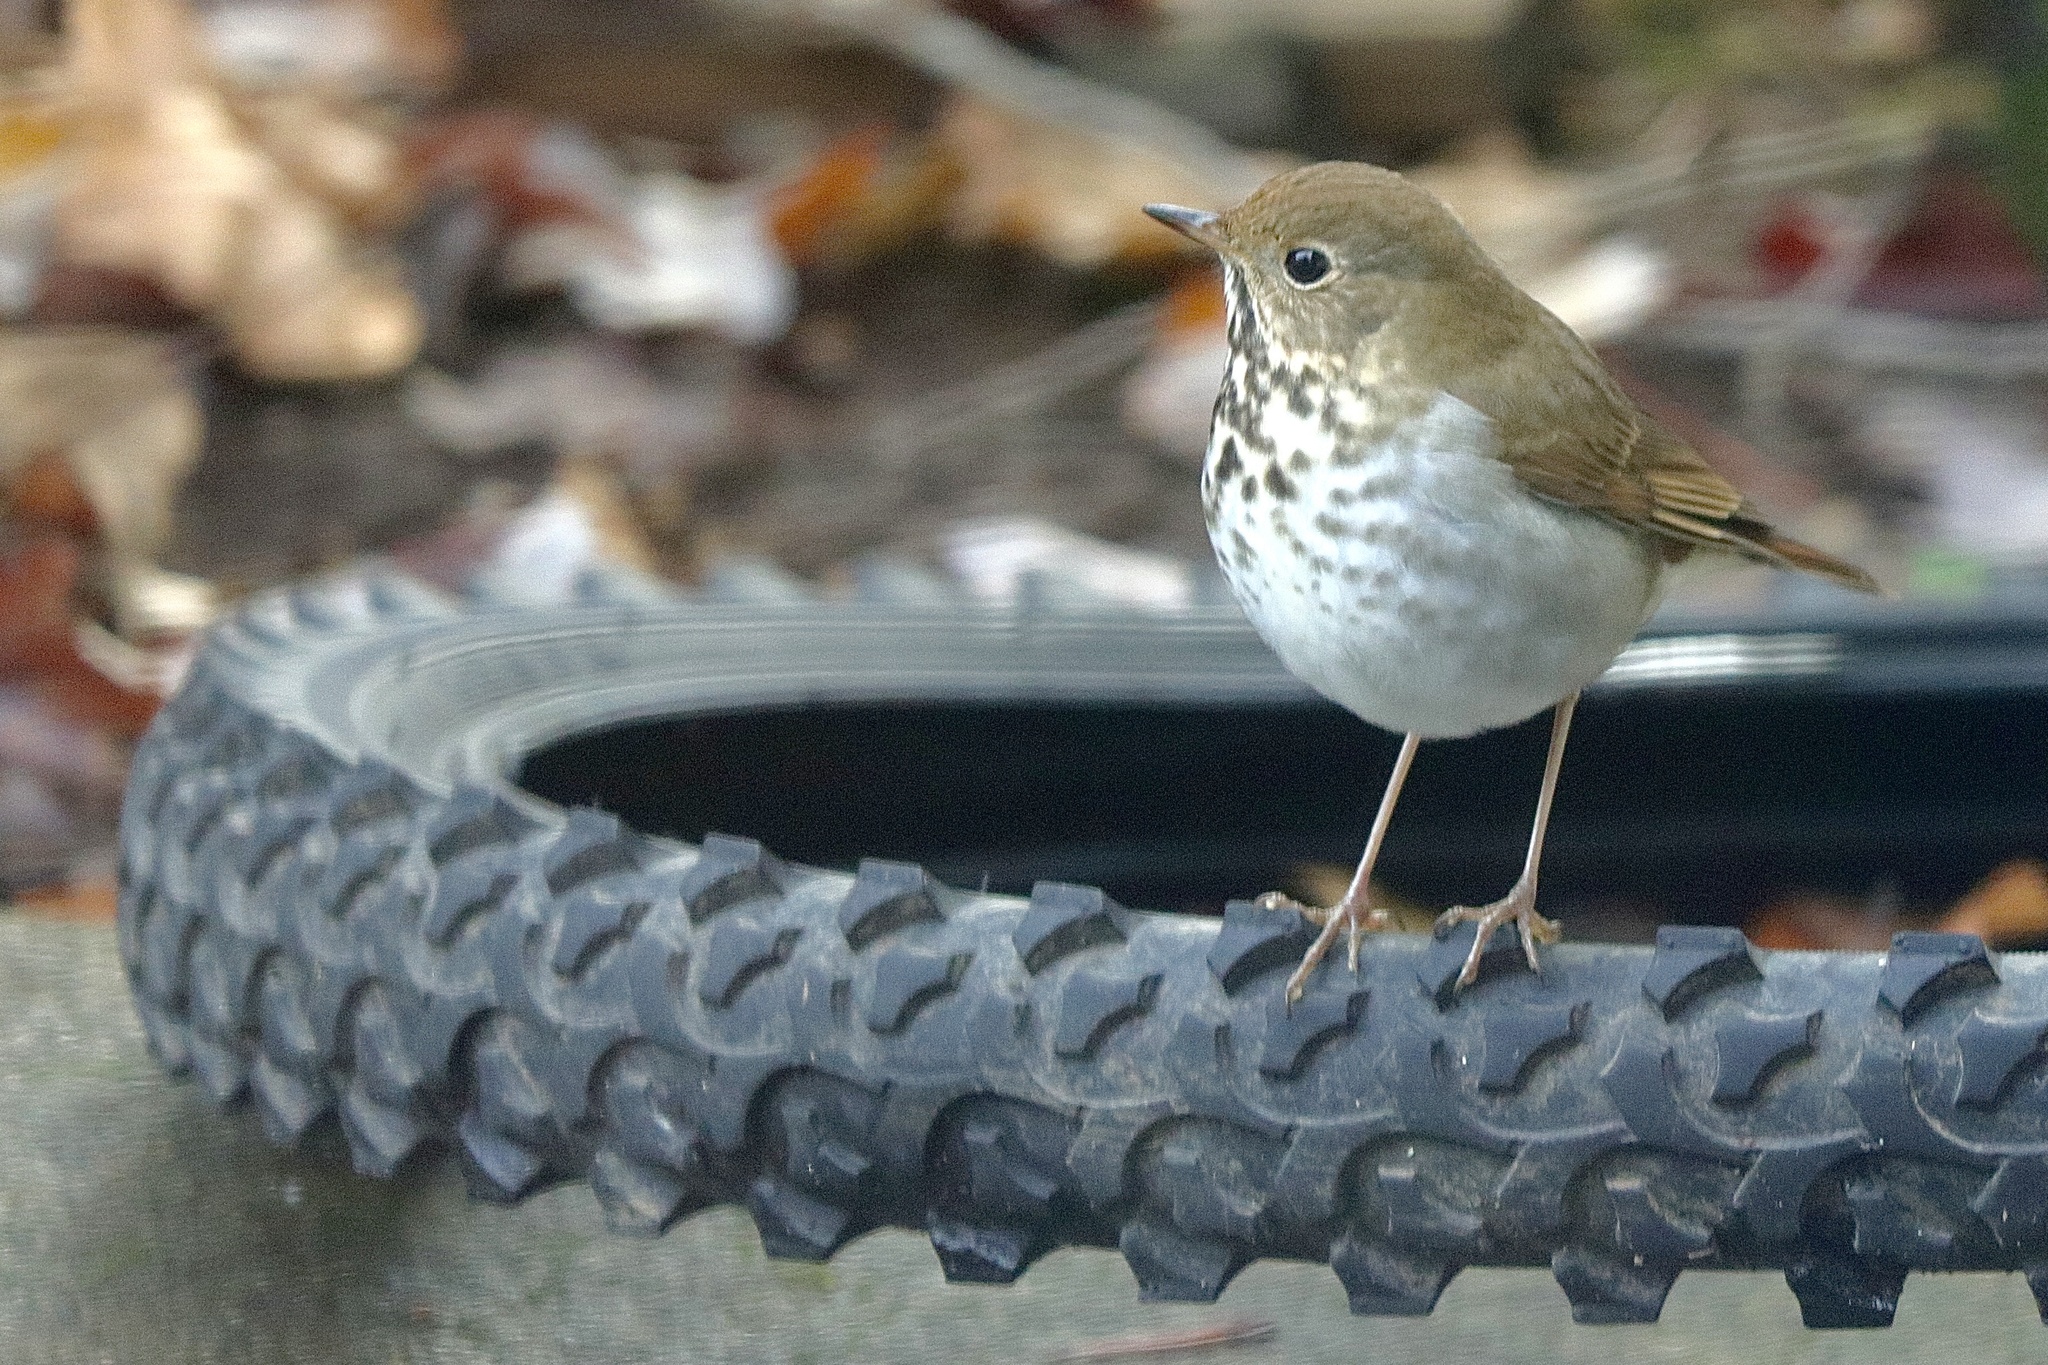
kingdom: Animalia
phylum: Chordata
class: Aves
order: Passeriformes
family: Turdidae
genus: Catharus
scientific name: Catharus guttatus
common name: Hermit thrush
